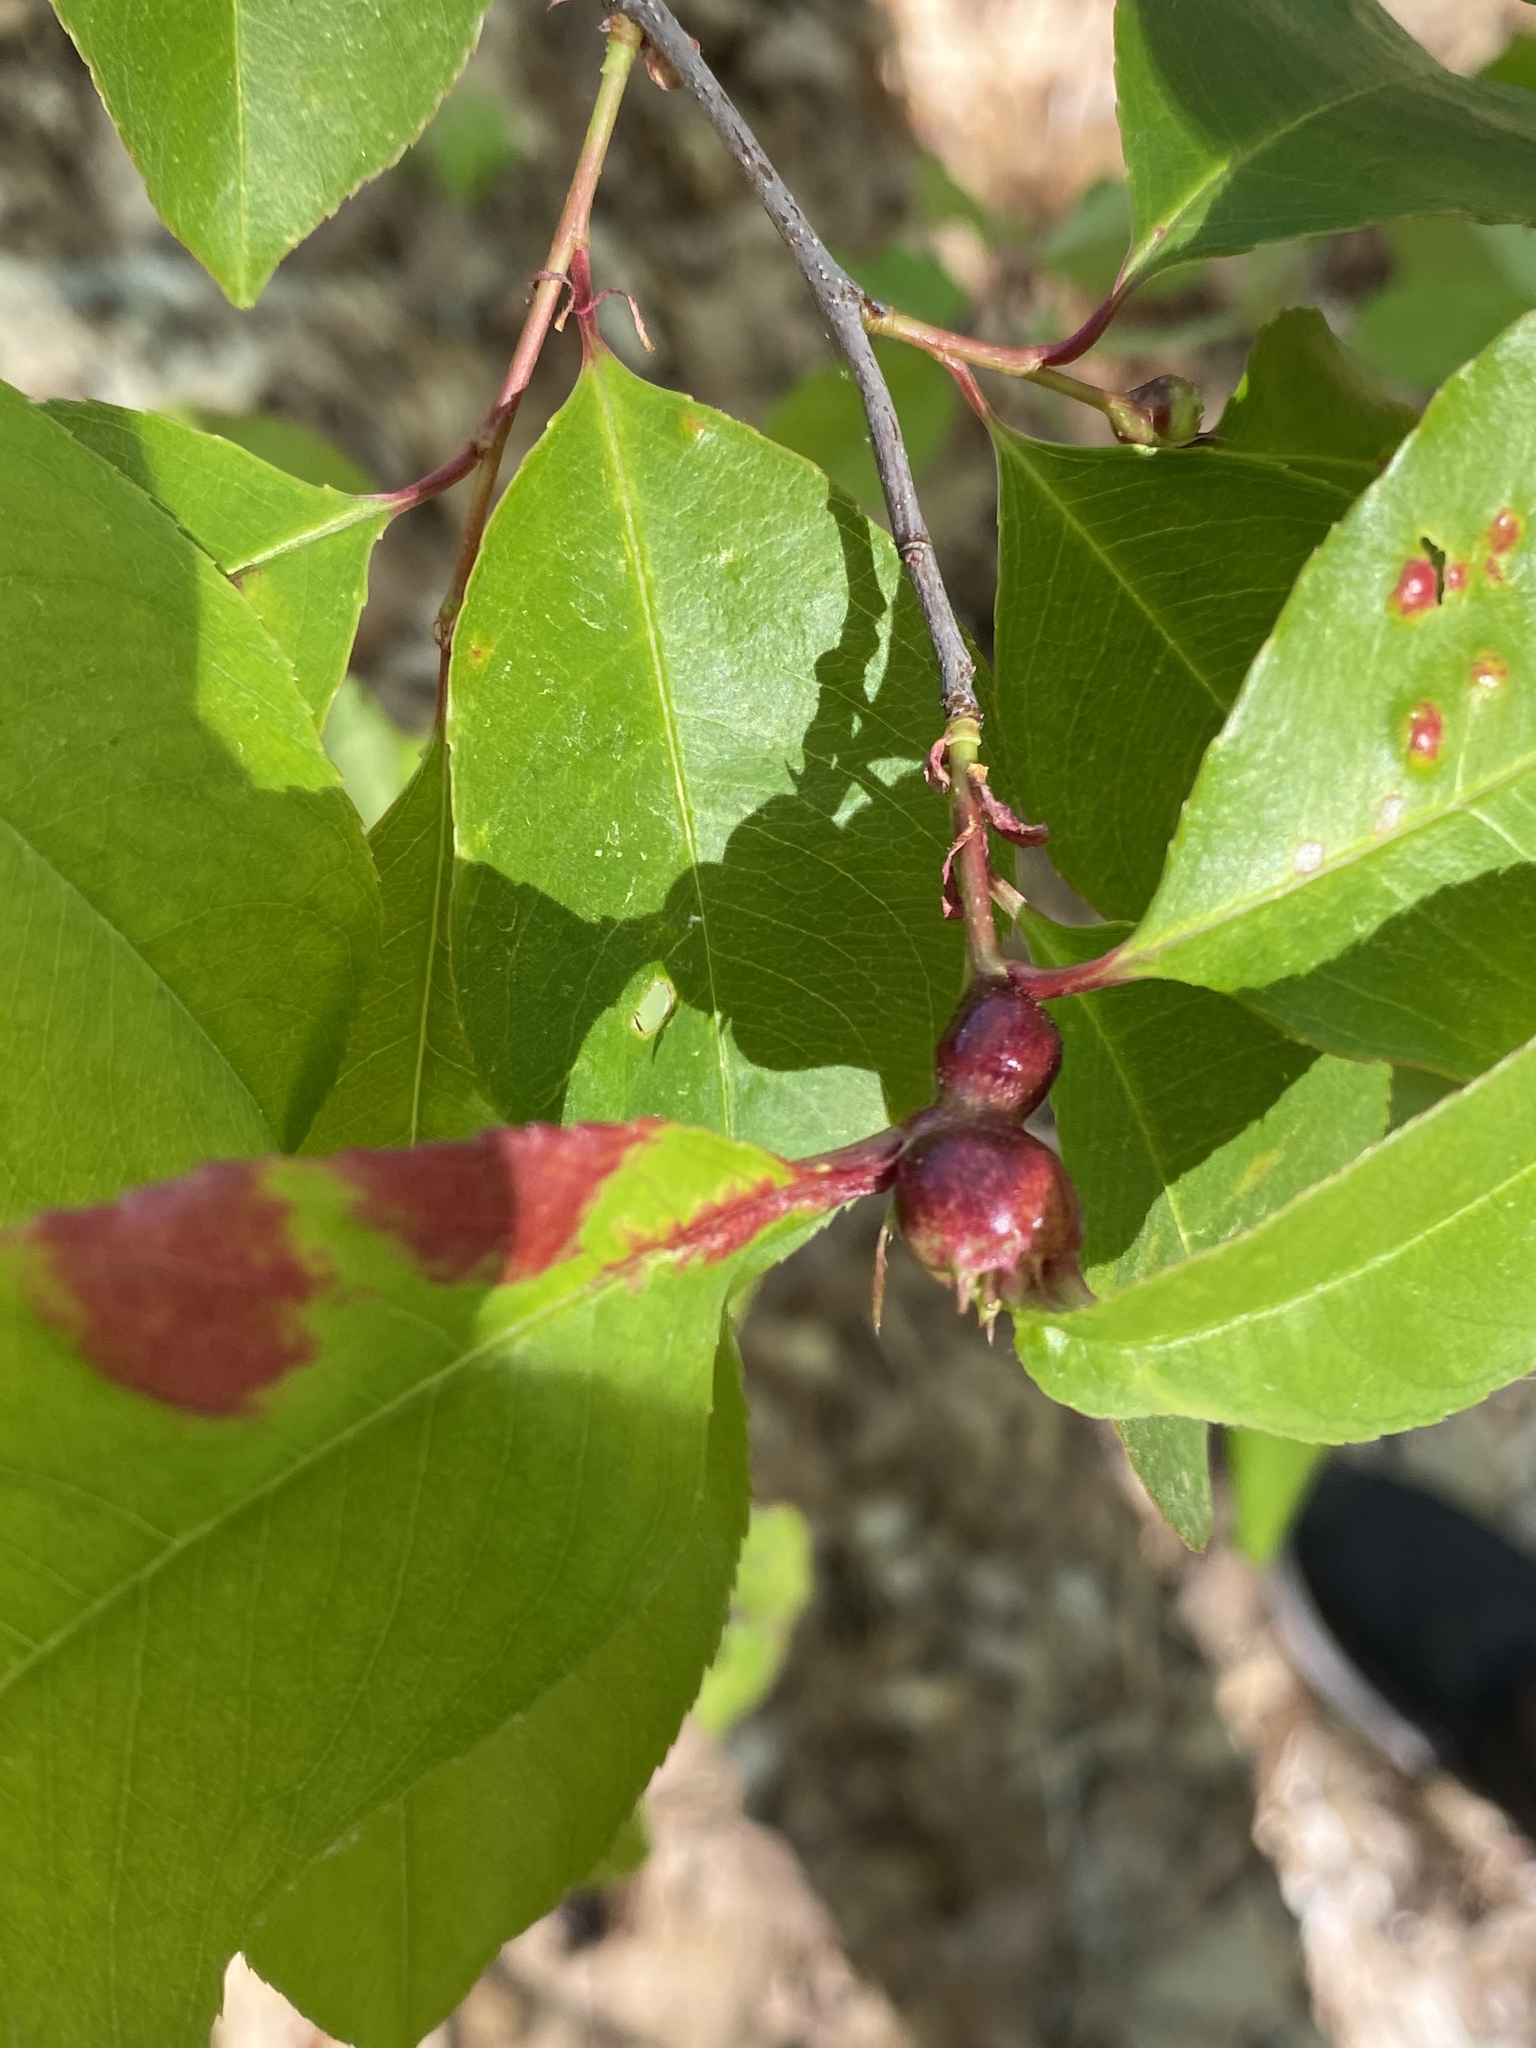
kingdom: Animalia
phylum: Arthropoda
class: Insecta
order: Diptera
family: Cecidomyiidae
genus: Contarinia
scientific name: Contarinia cerasiserotinae
